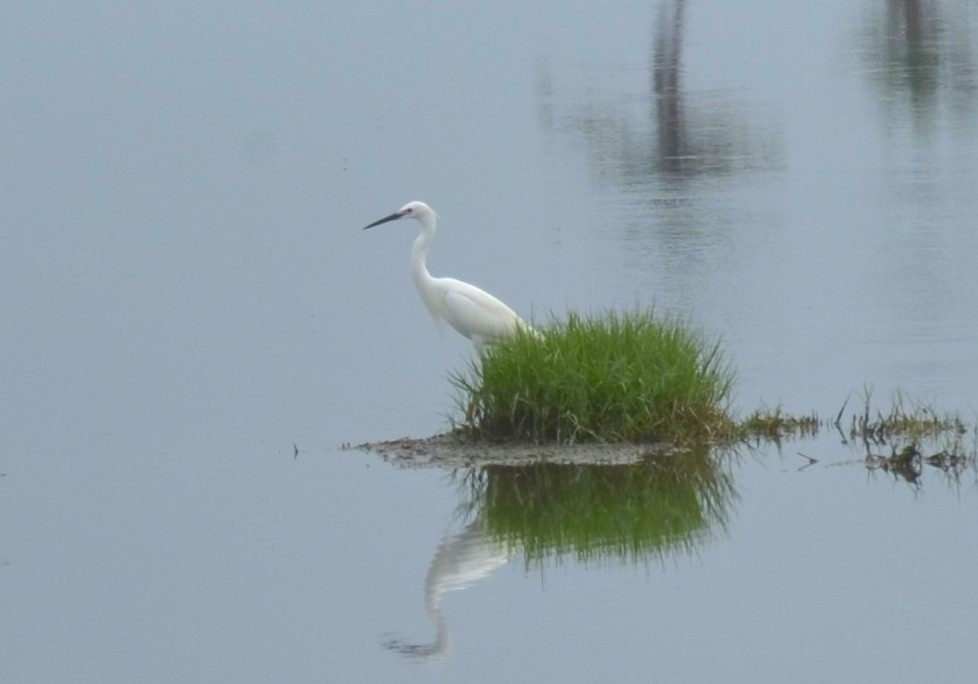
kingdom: Animalia
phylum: Chordata
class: Aves
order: Pelecaniformes
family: Ardeidae
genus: Egretta
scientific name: Egretta garzetta
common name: Little egret
